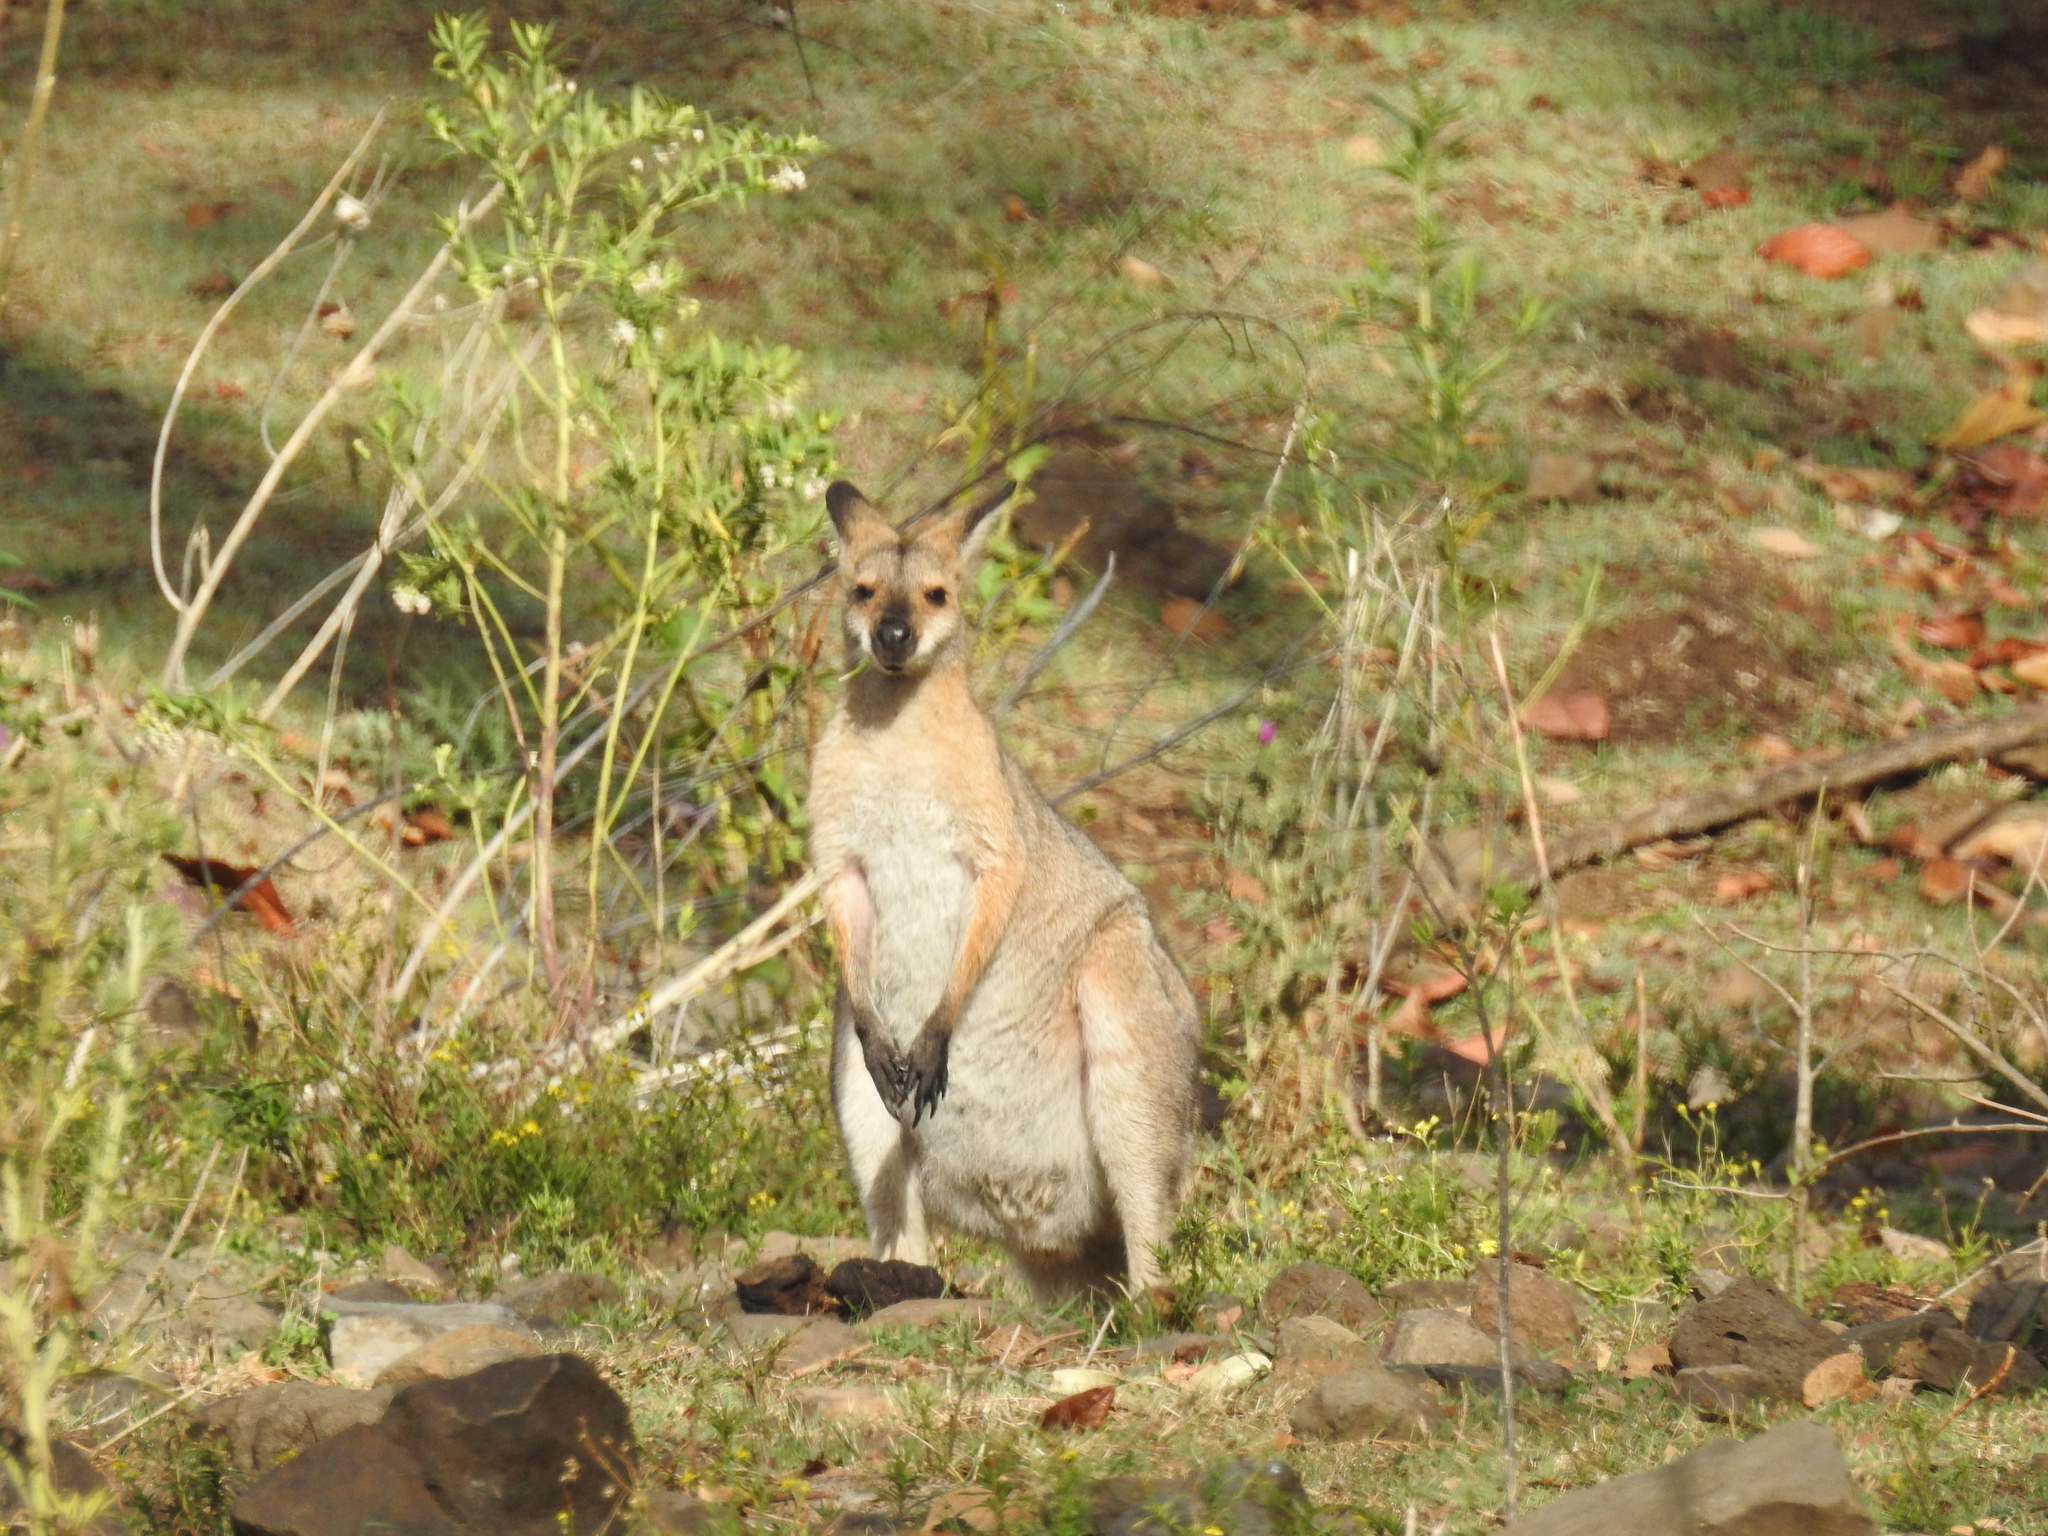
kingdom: Animalia
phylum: Chordata
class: Mammalia
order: Diprotodontia
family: Macropodidae
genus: Notamacropus
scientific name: Notamacropus rufogriseus
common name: Red-necked wallaby
